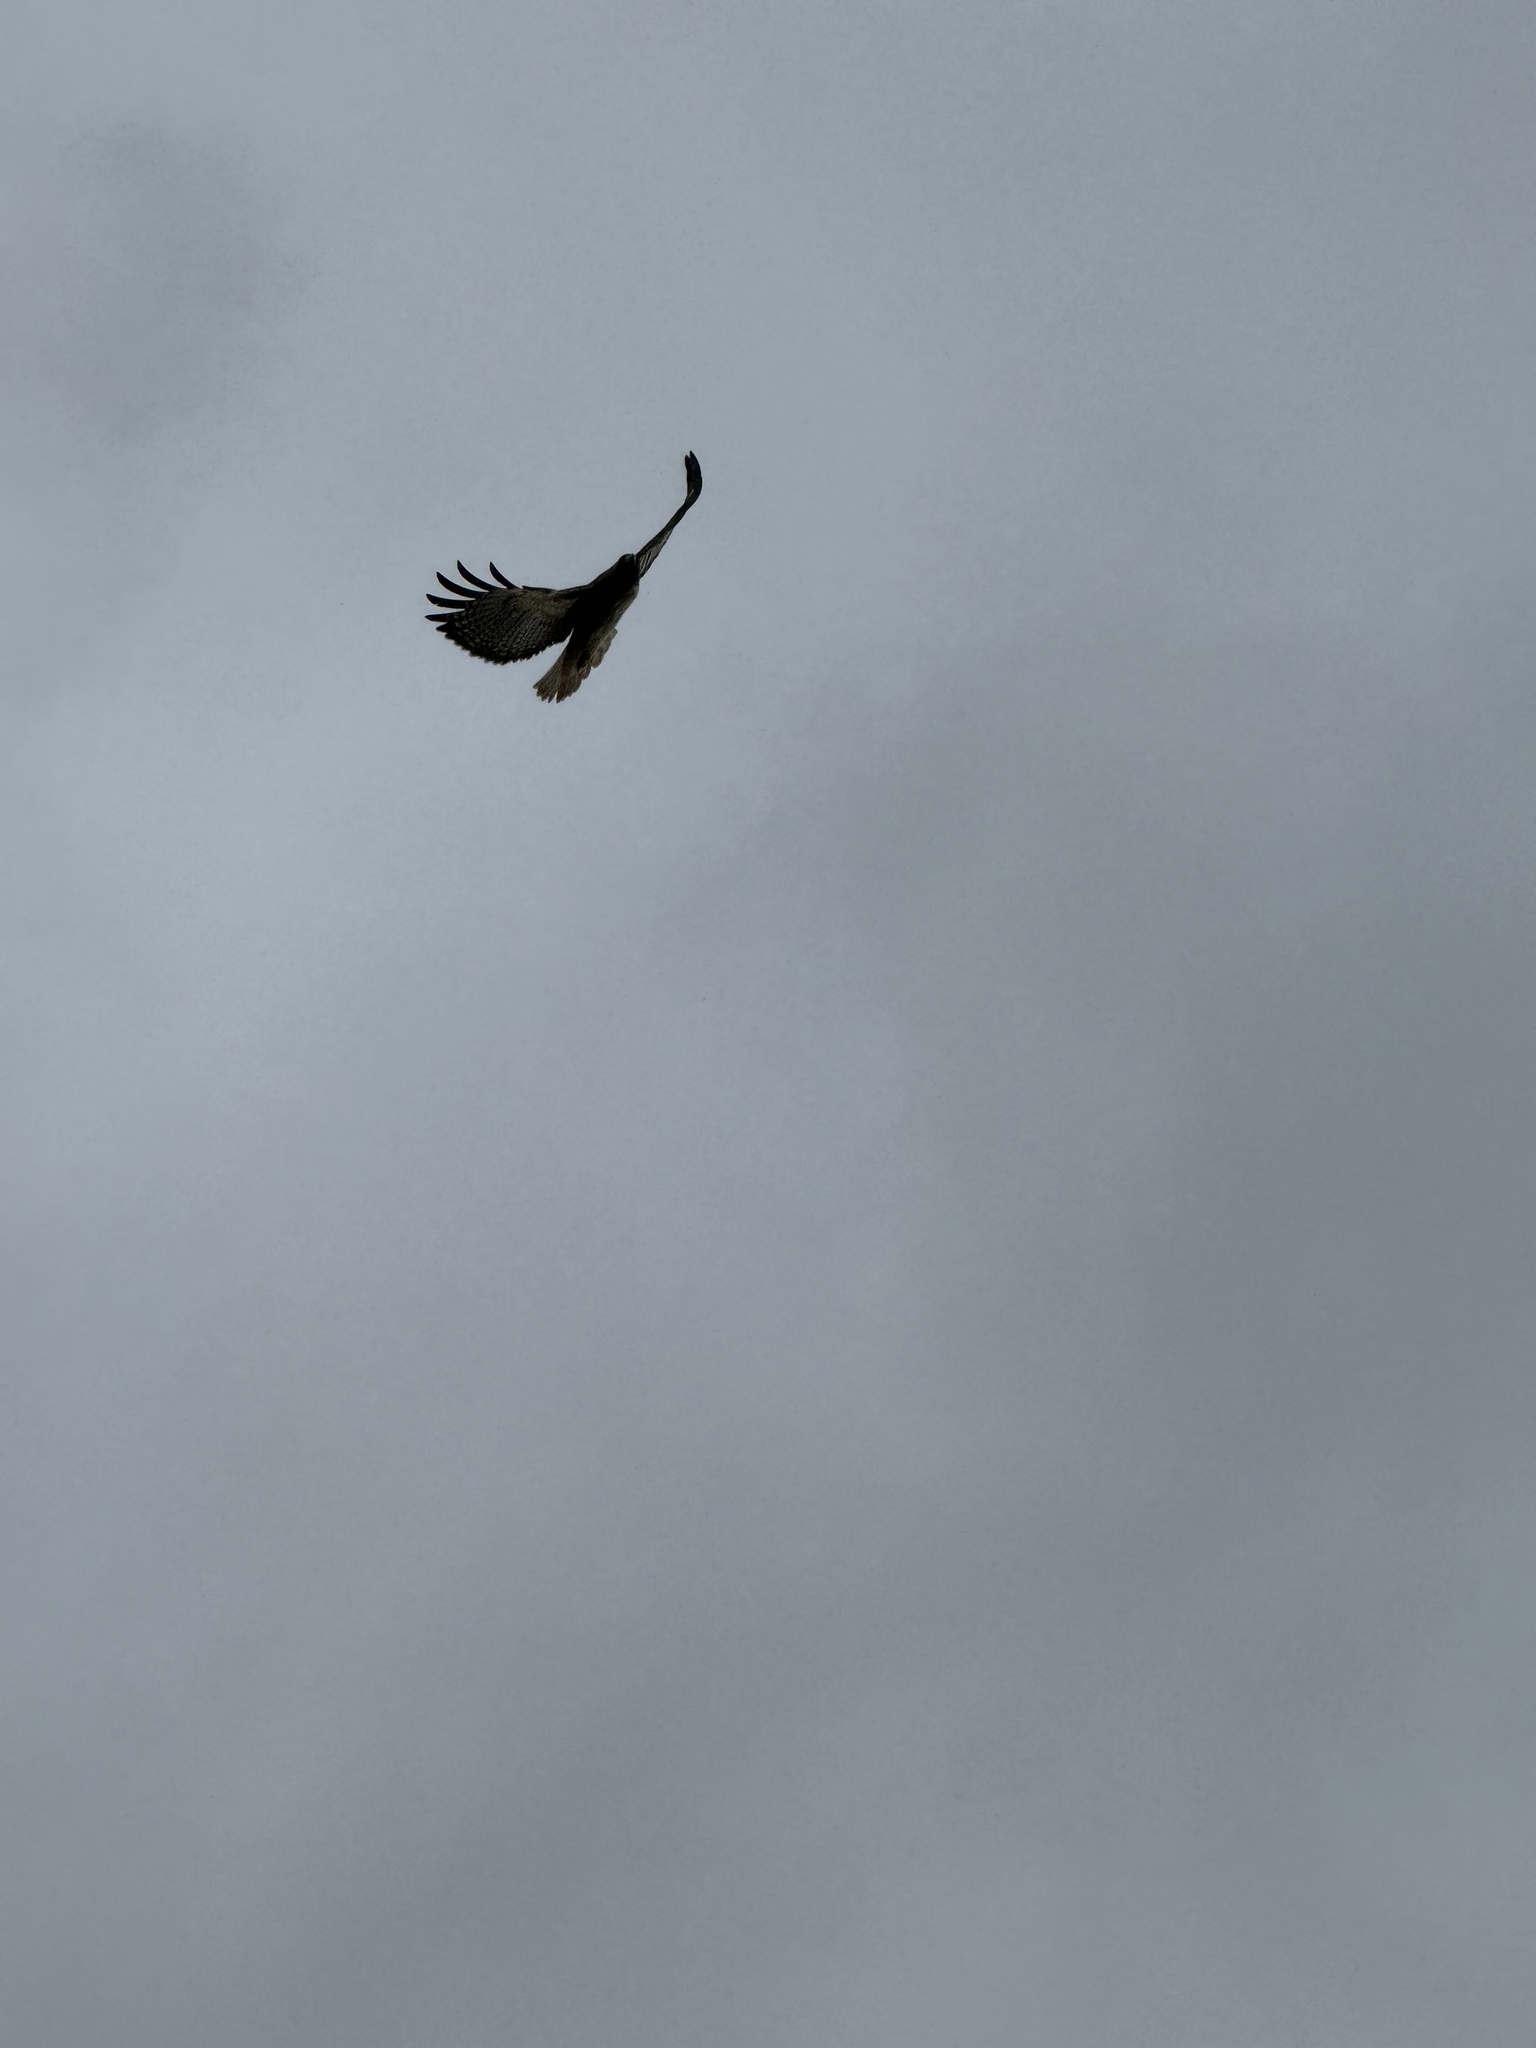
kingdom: Animalia
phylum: Chordata
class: Aves
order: Accipitriformes
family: Accipitridae
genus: Buteo
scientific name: Buteo jamaicensis
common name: Red-tailed hawk
